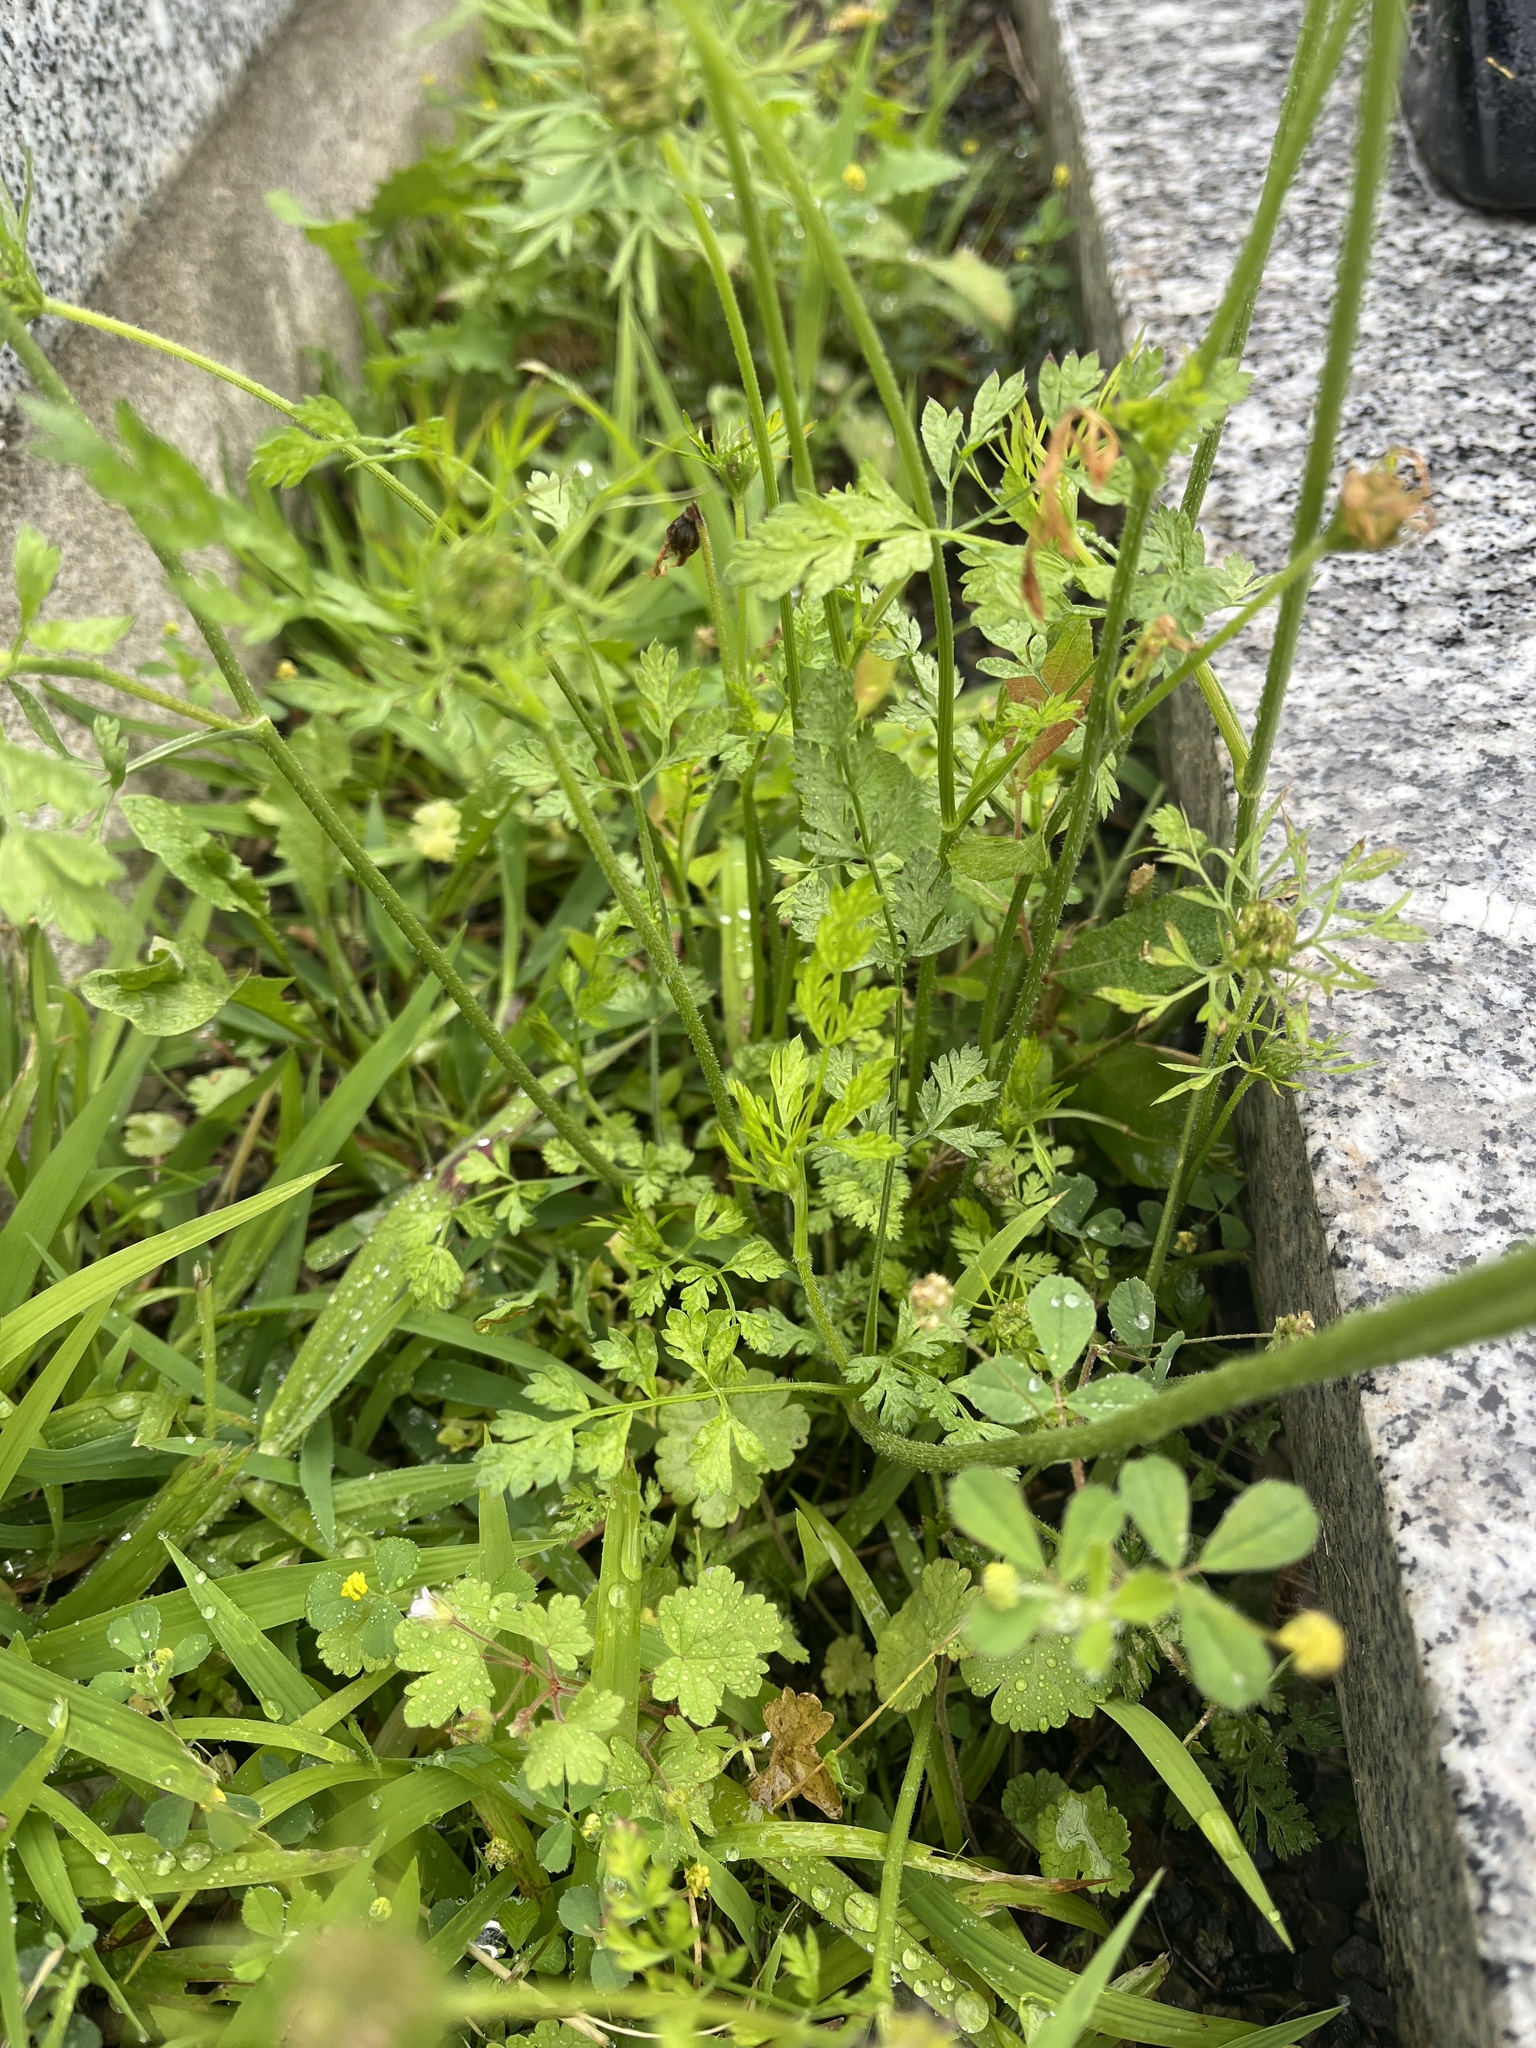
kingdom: Plantae
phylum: Tracheophyta
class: Magnoliopsida
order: Apiales
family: Apiaceae
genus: Daucus
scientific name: Daucus carota
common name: Wild carrot
